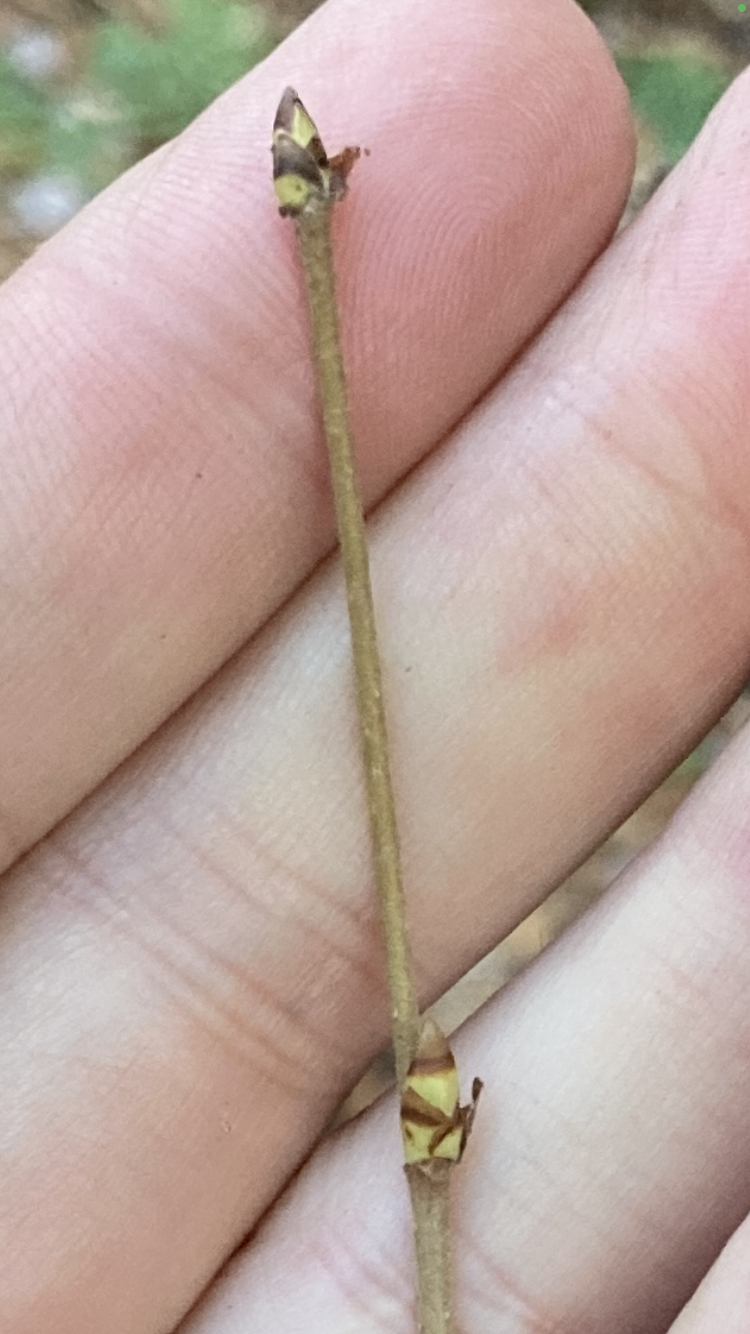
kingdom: Plantae
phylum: Tracheophyta
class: Magnoliopsida
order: Fagales
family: Betulaceae
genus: Betula
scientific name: Betula alleghaniensis
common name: Yellow birch
